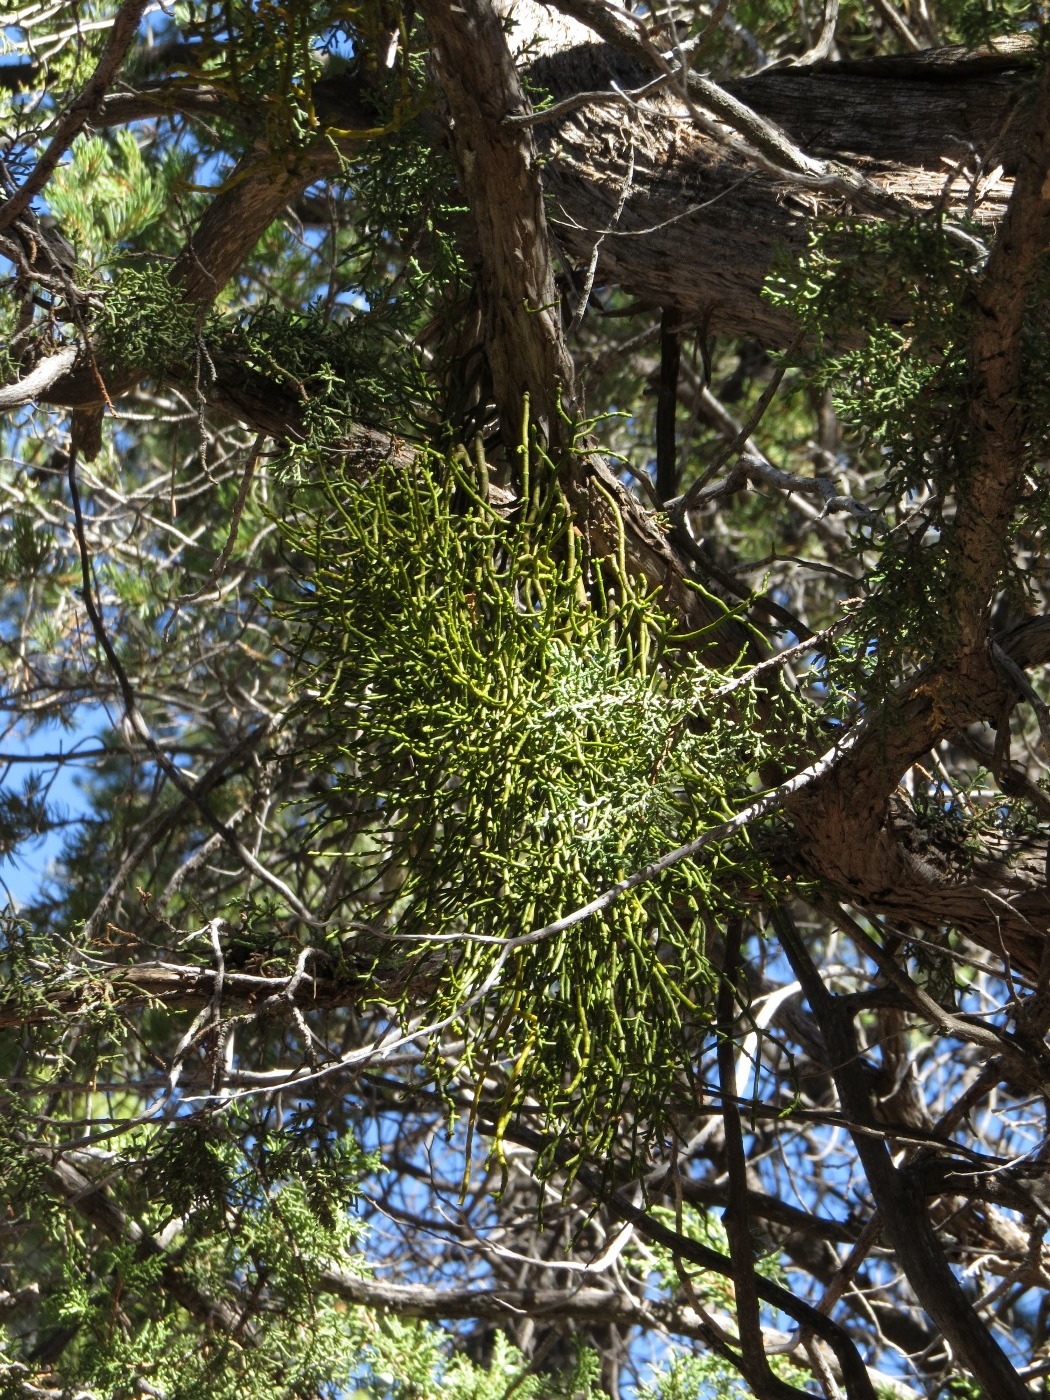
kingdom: Plantae
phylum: Tracheophyta
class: Magnoliopsida
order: Santalales
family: Viscaceae
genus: Phoradendron
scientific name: Phoradendron juniperinum
